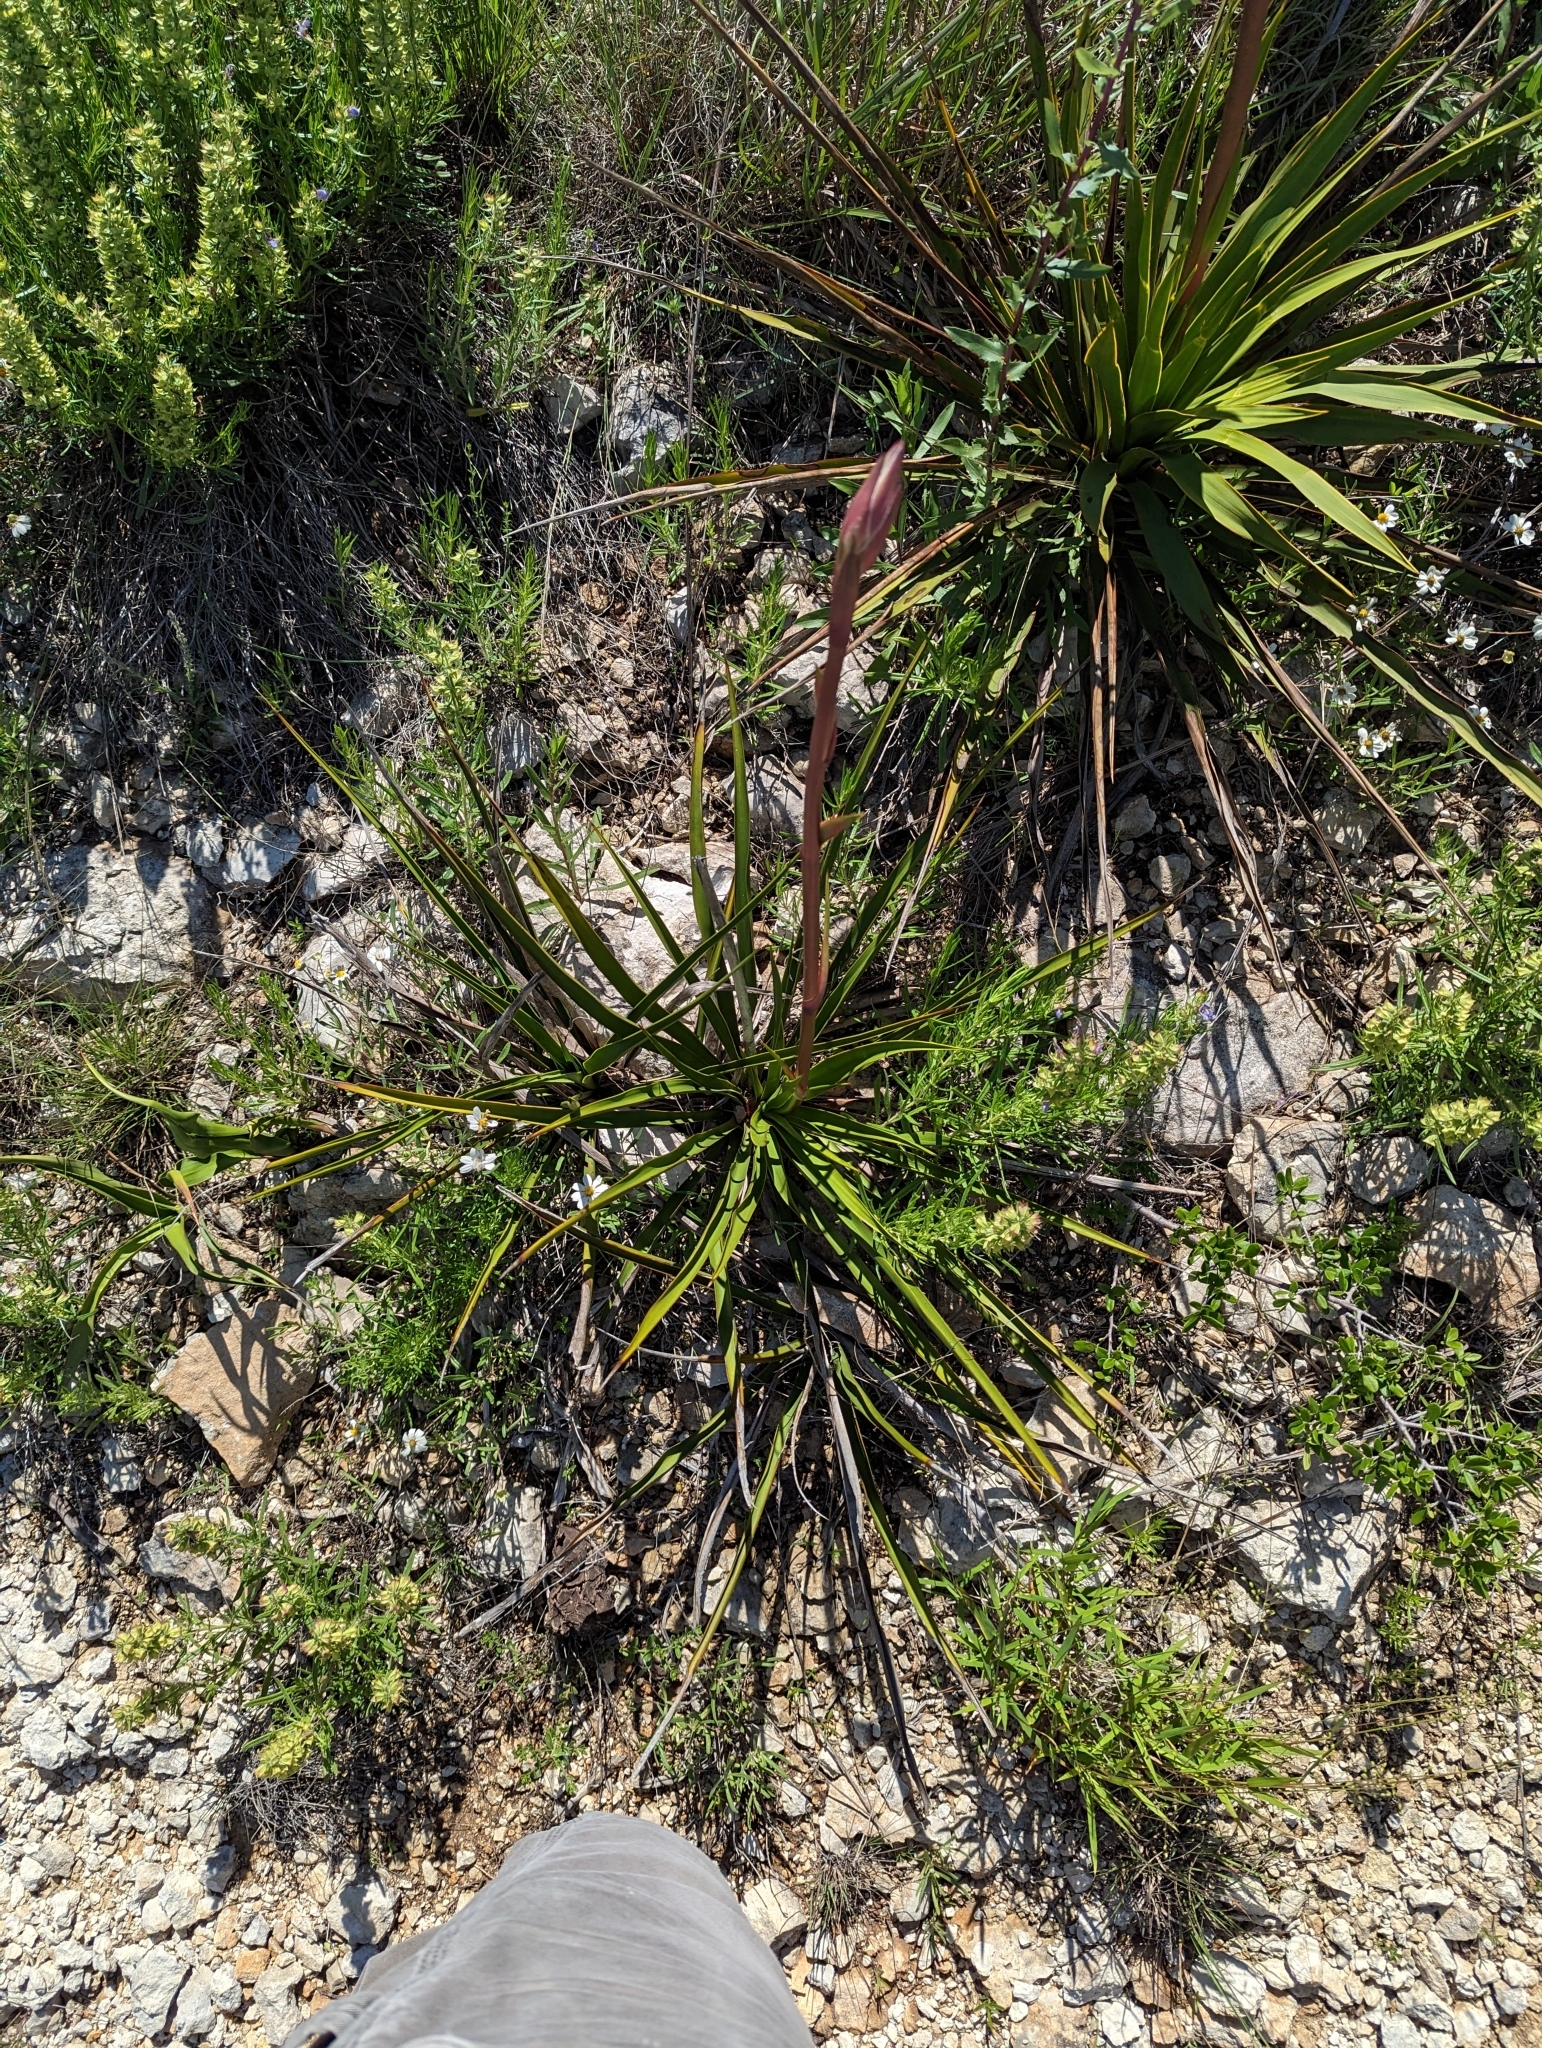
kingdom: Plantae
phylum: Tracheophyta
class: Liliopsida
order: Asparagales
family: Asparagaceae
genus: Yucca
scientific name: Yucca rupicola
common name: Twisted-leaf spanish-dagger
